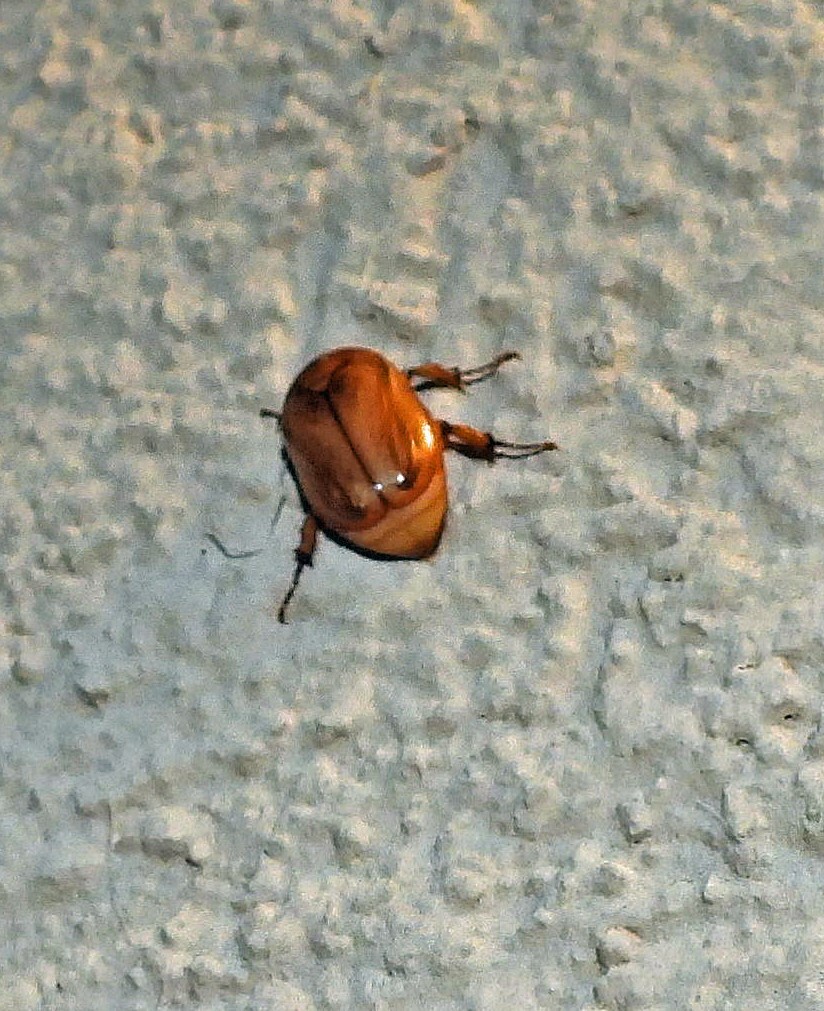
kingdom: Animalia
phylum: Arthropoda
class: Insecta
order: Coleoptera
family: Scarabaeidae
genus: Cyclocephala
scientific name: Cyclocephala signaticollis
